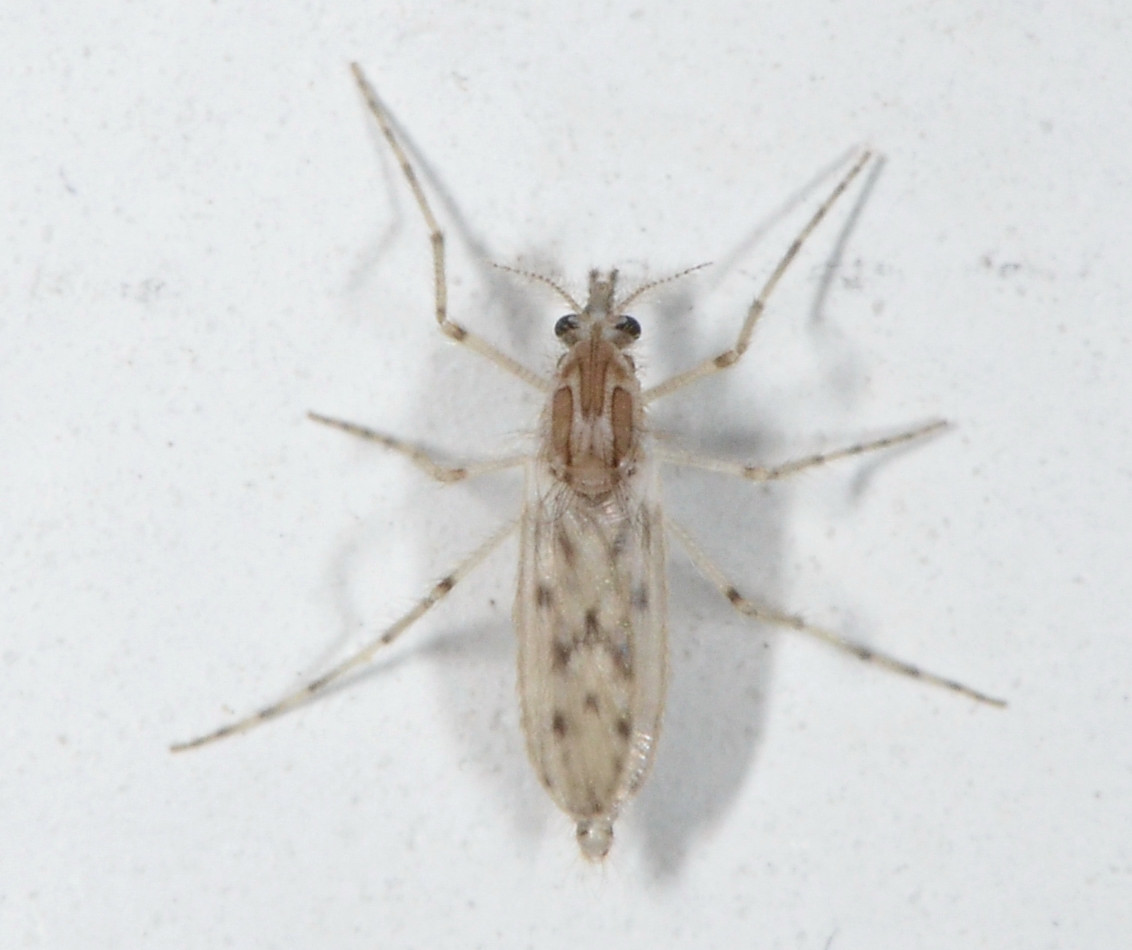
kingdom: Animalia
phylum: Arthropoda
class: Insecta
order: Diptera
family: Chaoboridae
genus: Chaoborus
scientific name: Chaoborus astictopus
